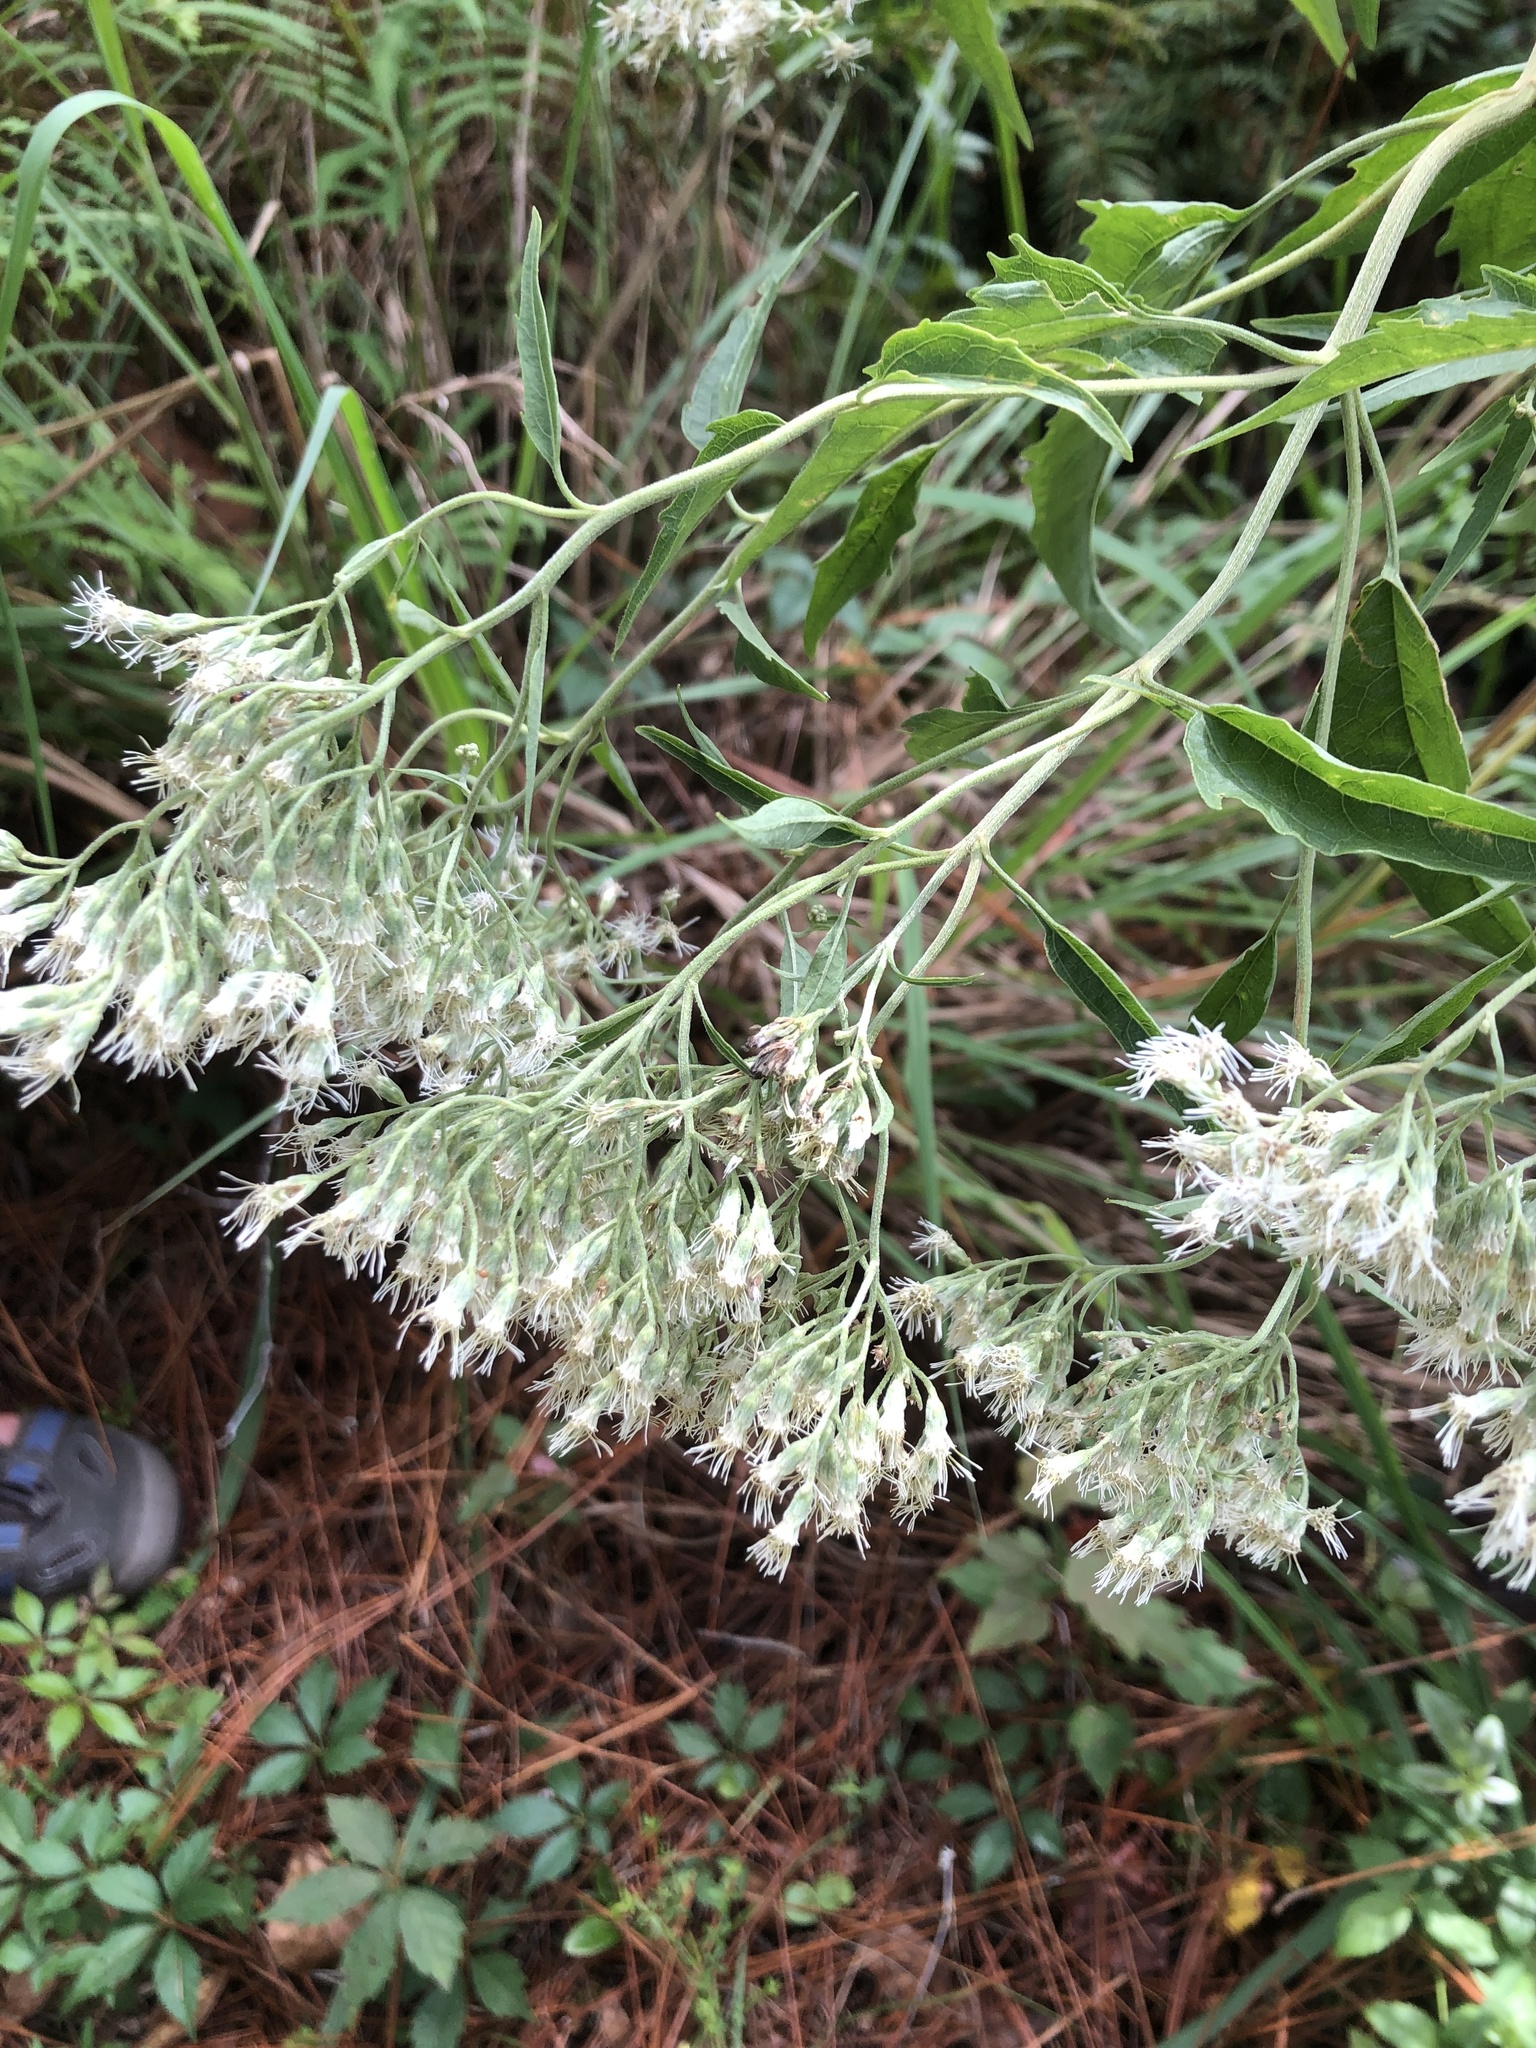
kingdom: Plantae
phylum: Tracheophyta
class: Magnoliopsida
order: Asterales
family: Asteraceae
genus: Eupatorium
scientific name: Eupatorium serotinum
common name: Late boneset
